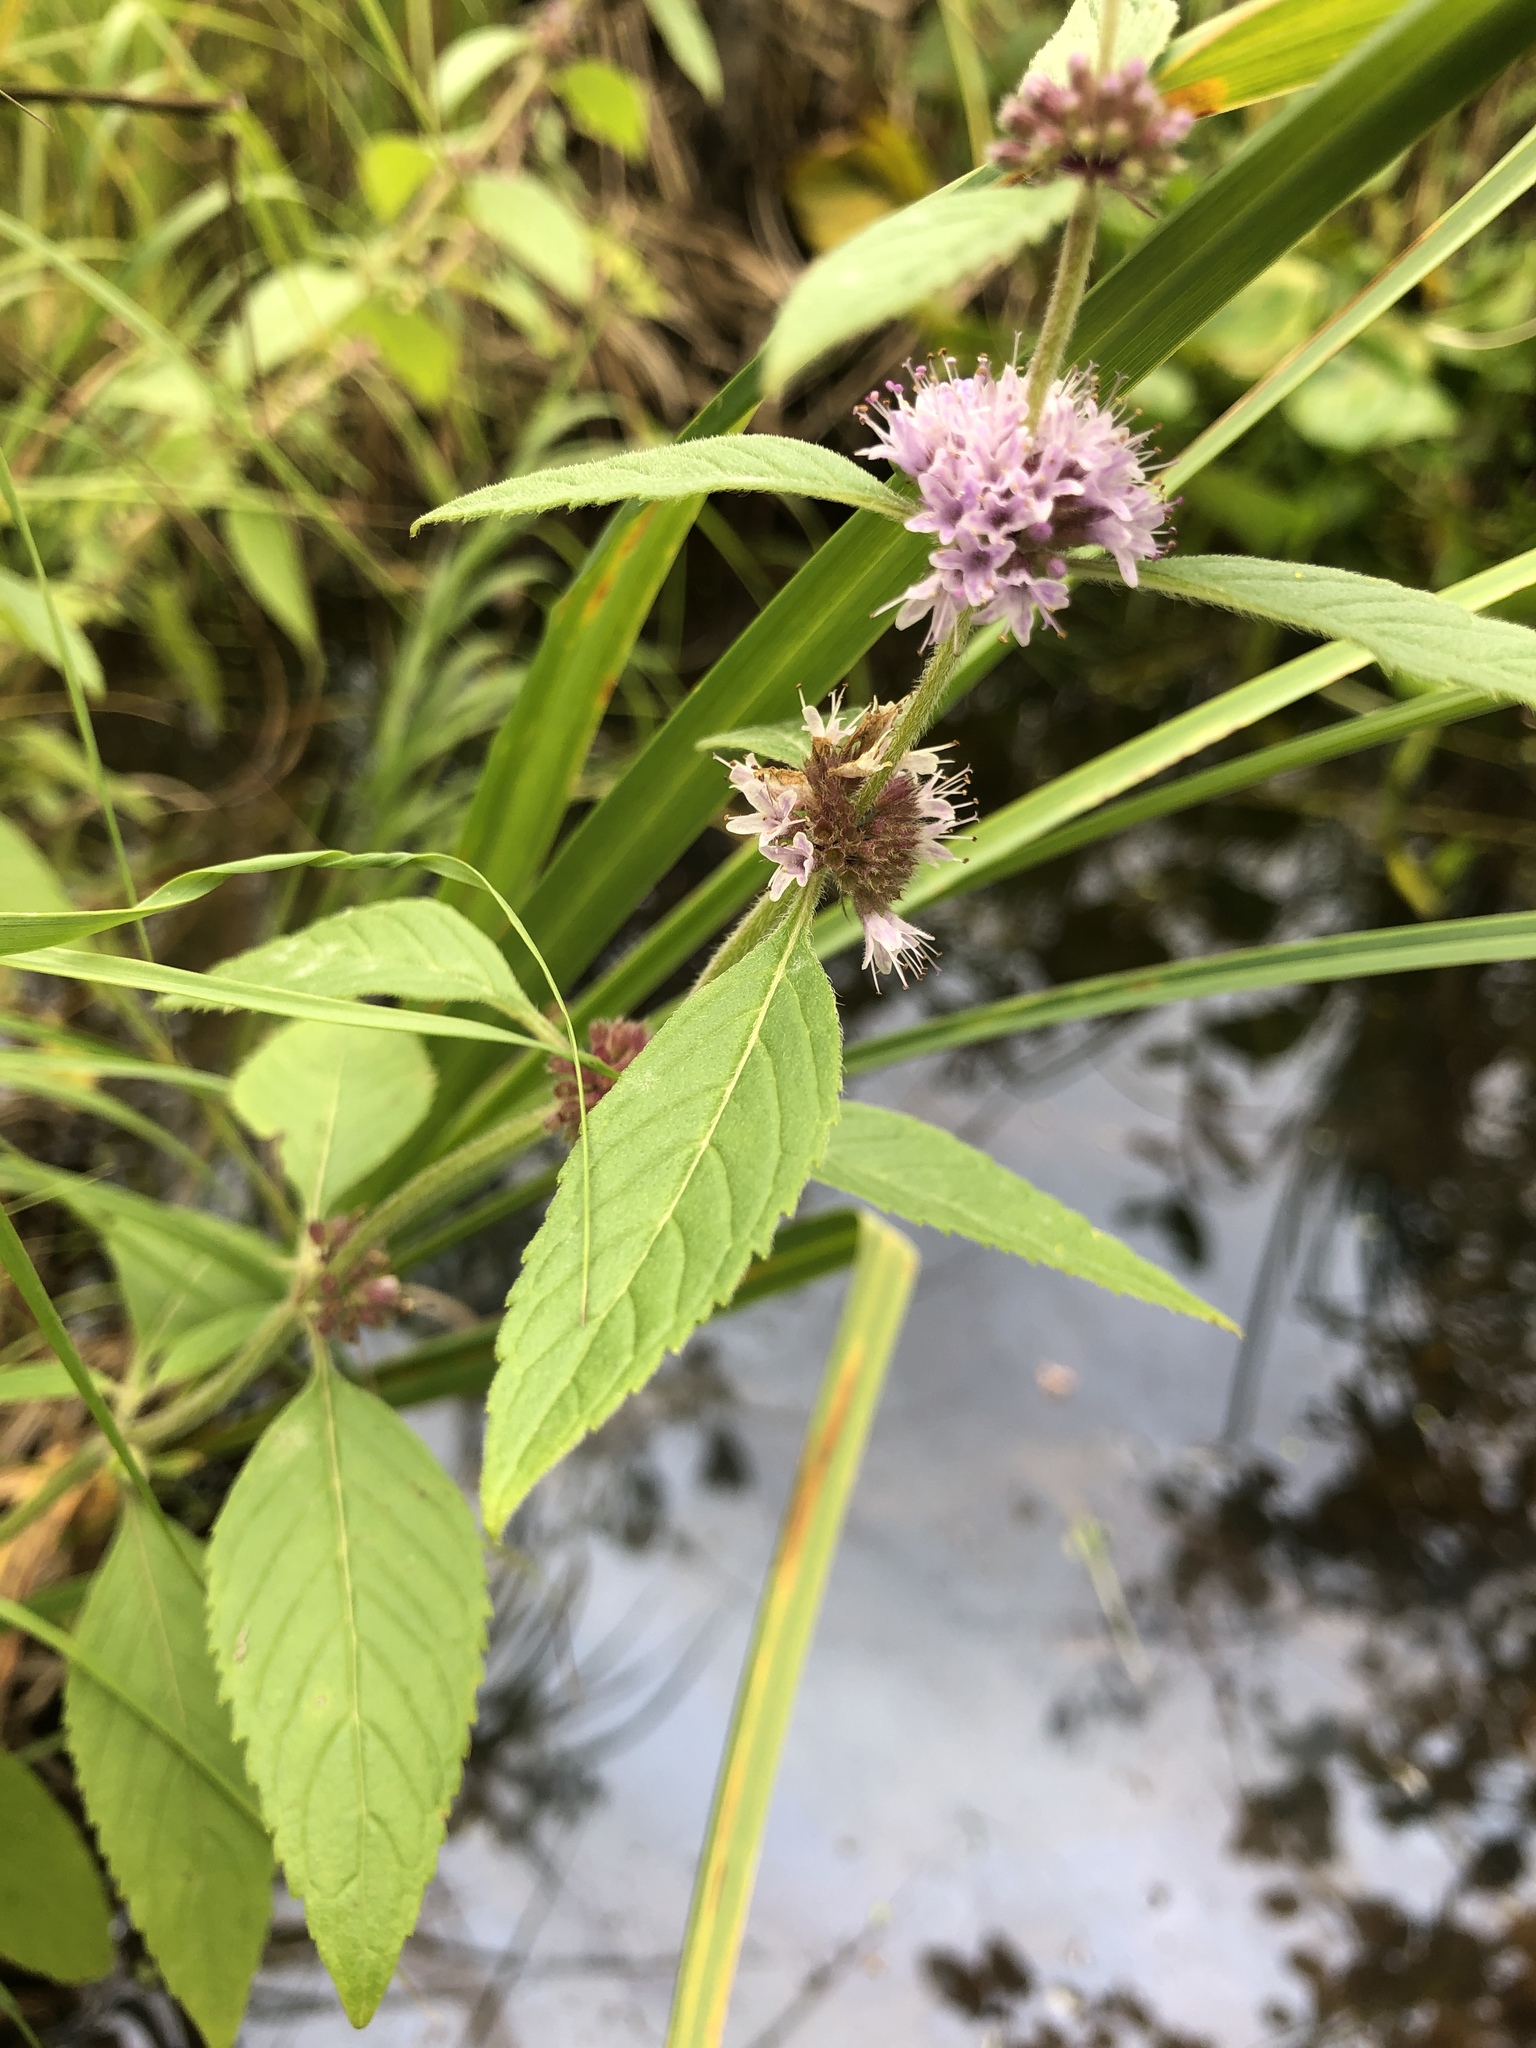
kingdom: Plantae
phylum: Tracheophyta
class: Magnoliopsida
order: Lamiales
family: Lamiaceae
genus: Mentha
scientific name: Mentha canadensis
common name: American corn mint
